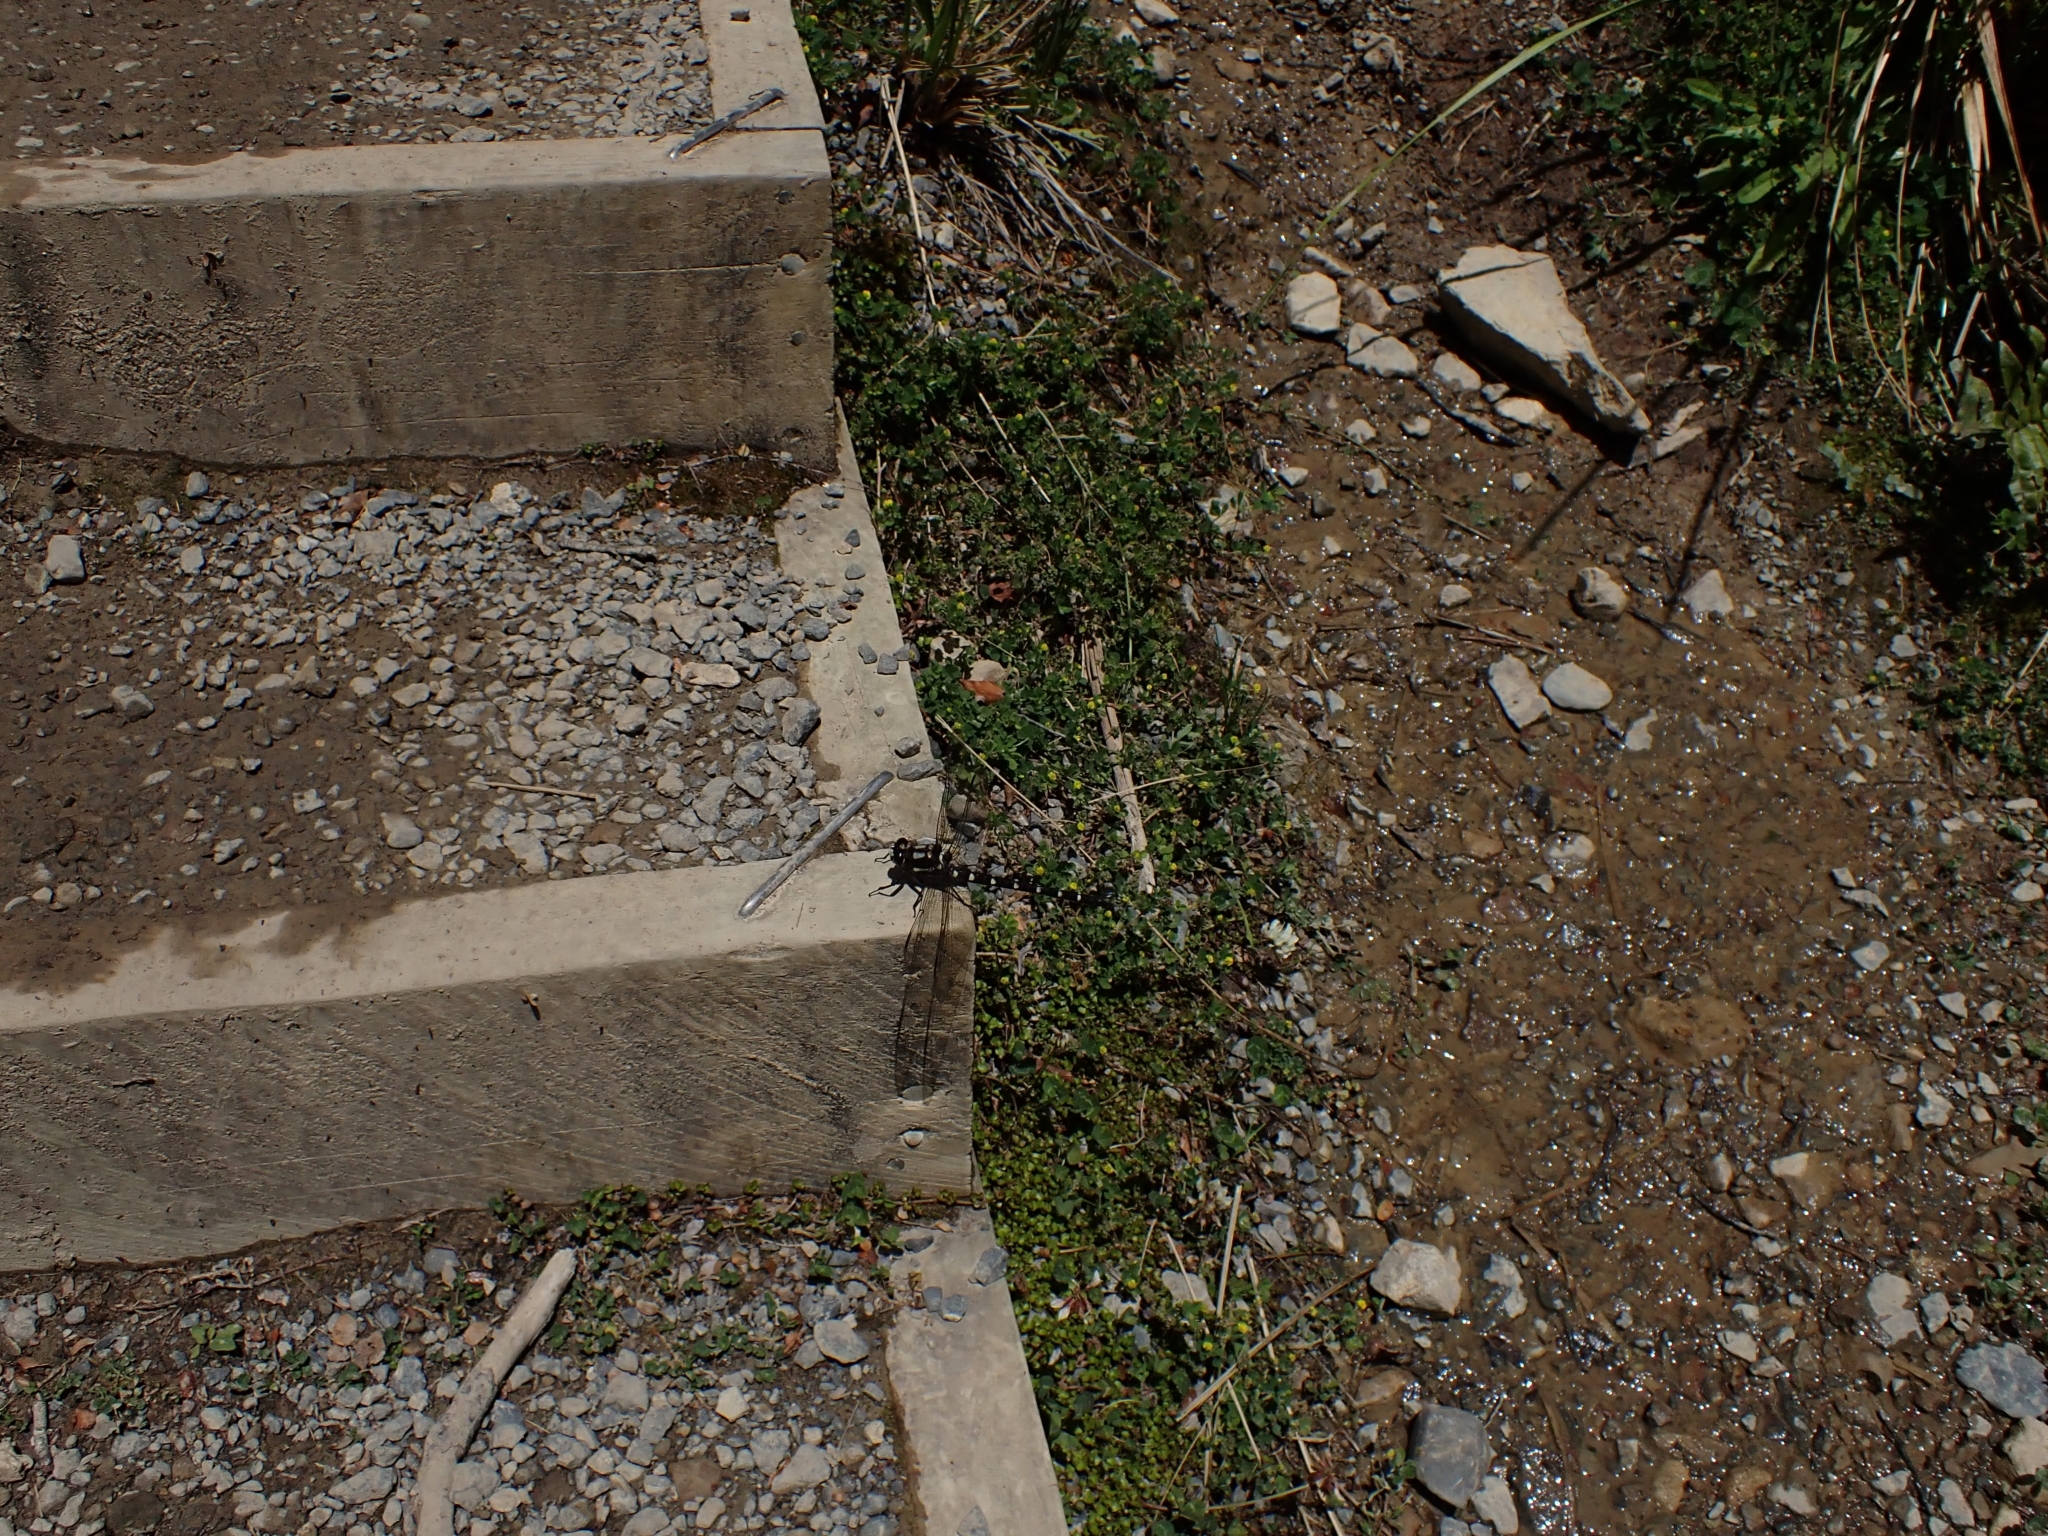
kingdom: Animalia
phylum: Arthropoda
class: Insecta
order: Odonata
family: Petaluridae
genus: Uropetala
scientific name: Uropetala carovei
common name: Bush giant dragonfly
